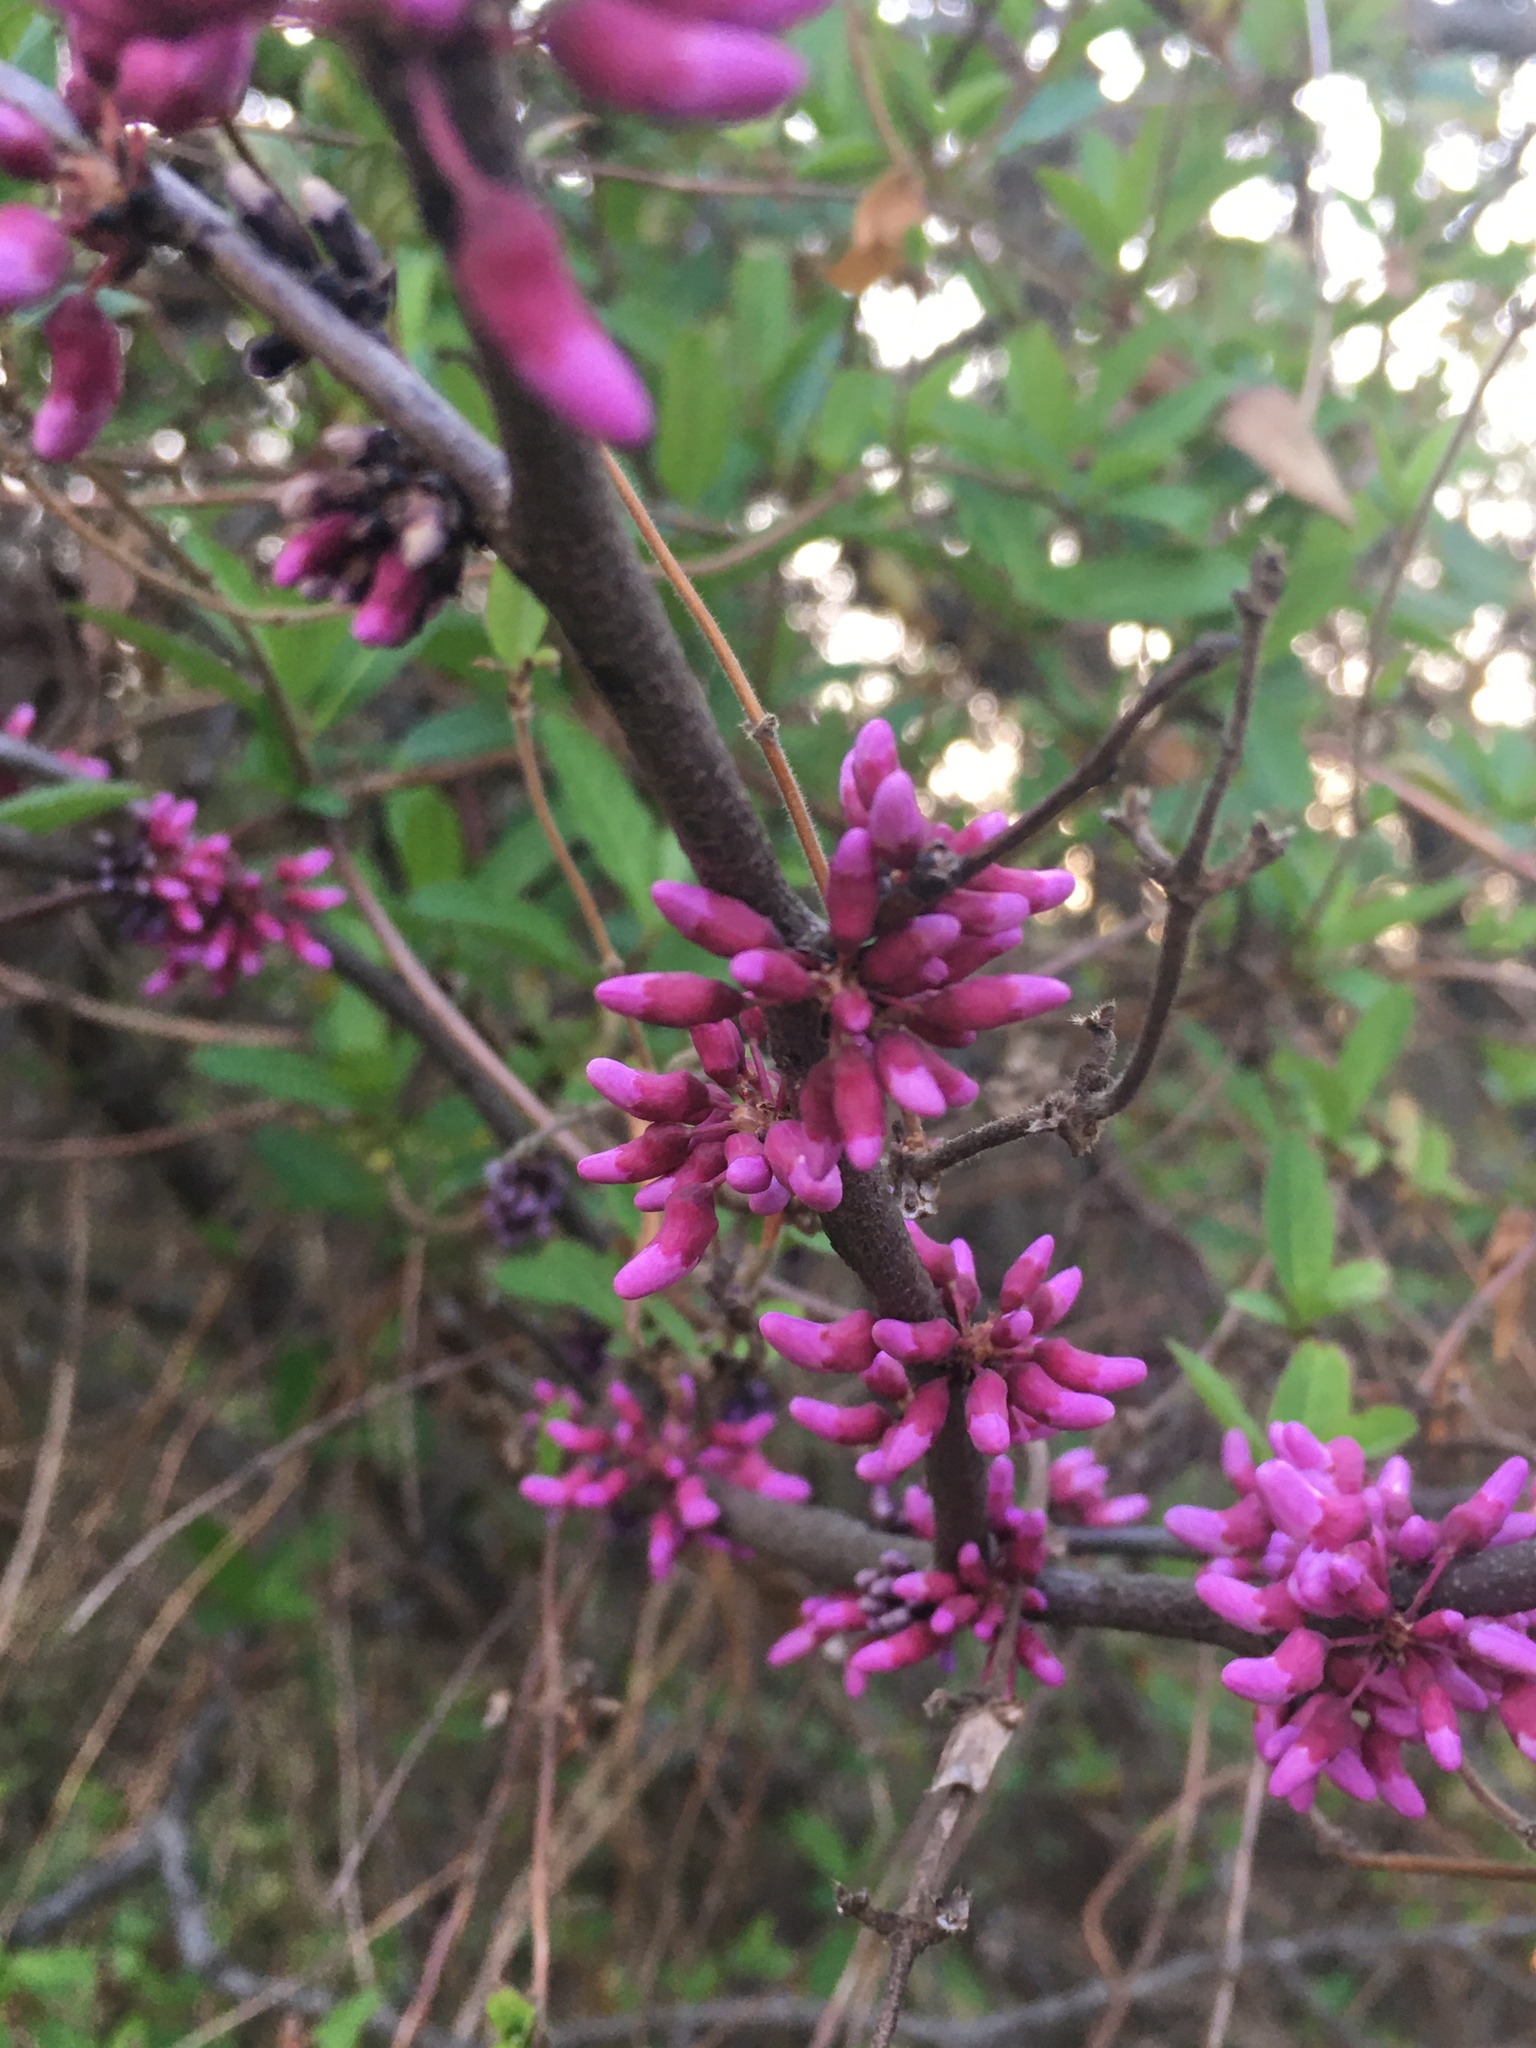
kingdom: Plantae
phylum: Tracheophyta
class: Magnoliopsida
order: Fabales
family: Fabaceae
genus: Cercis
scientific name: Cercis canadensis
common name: Eastern redbud
